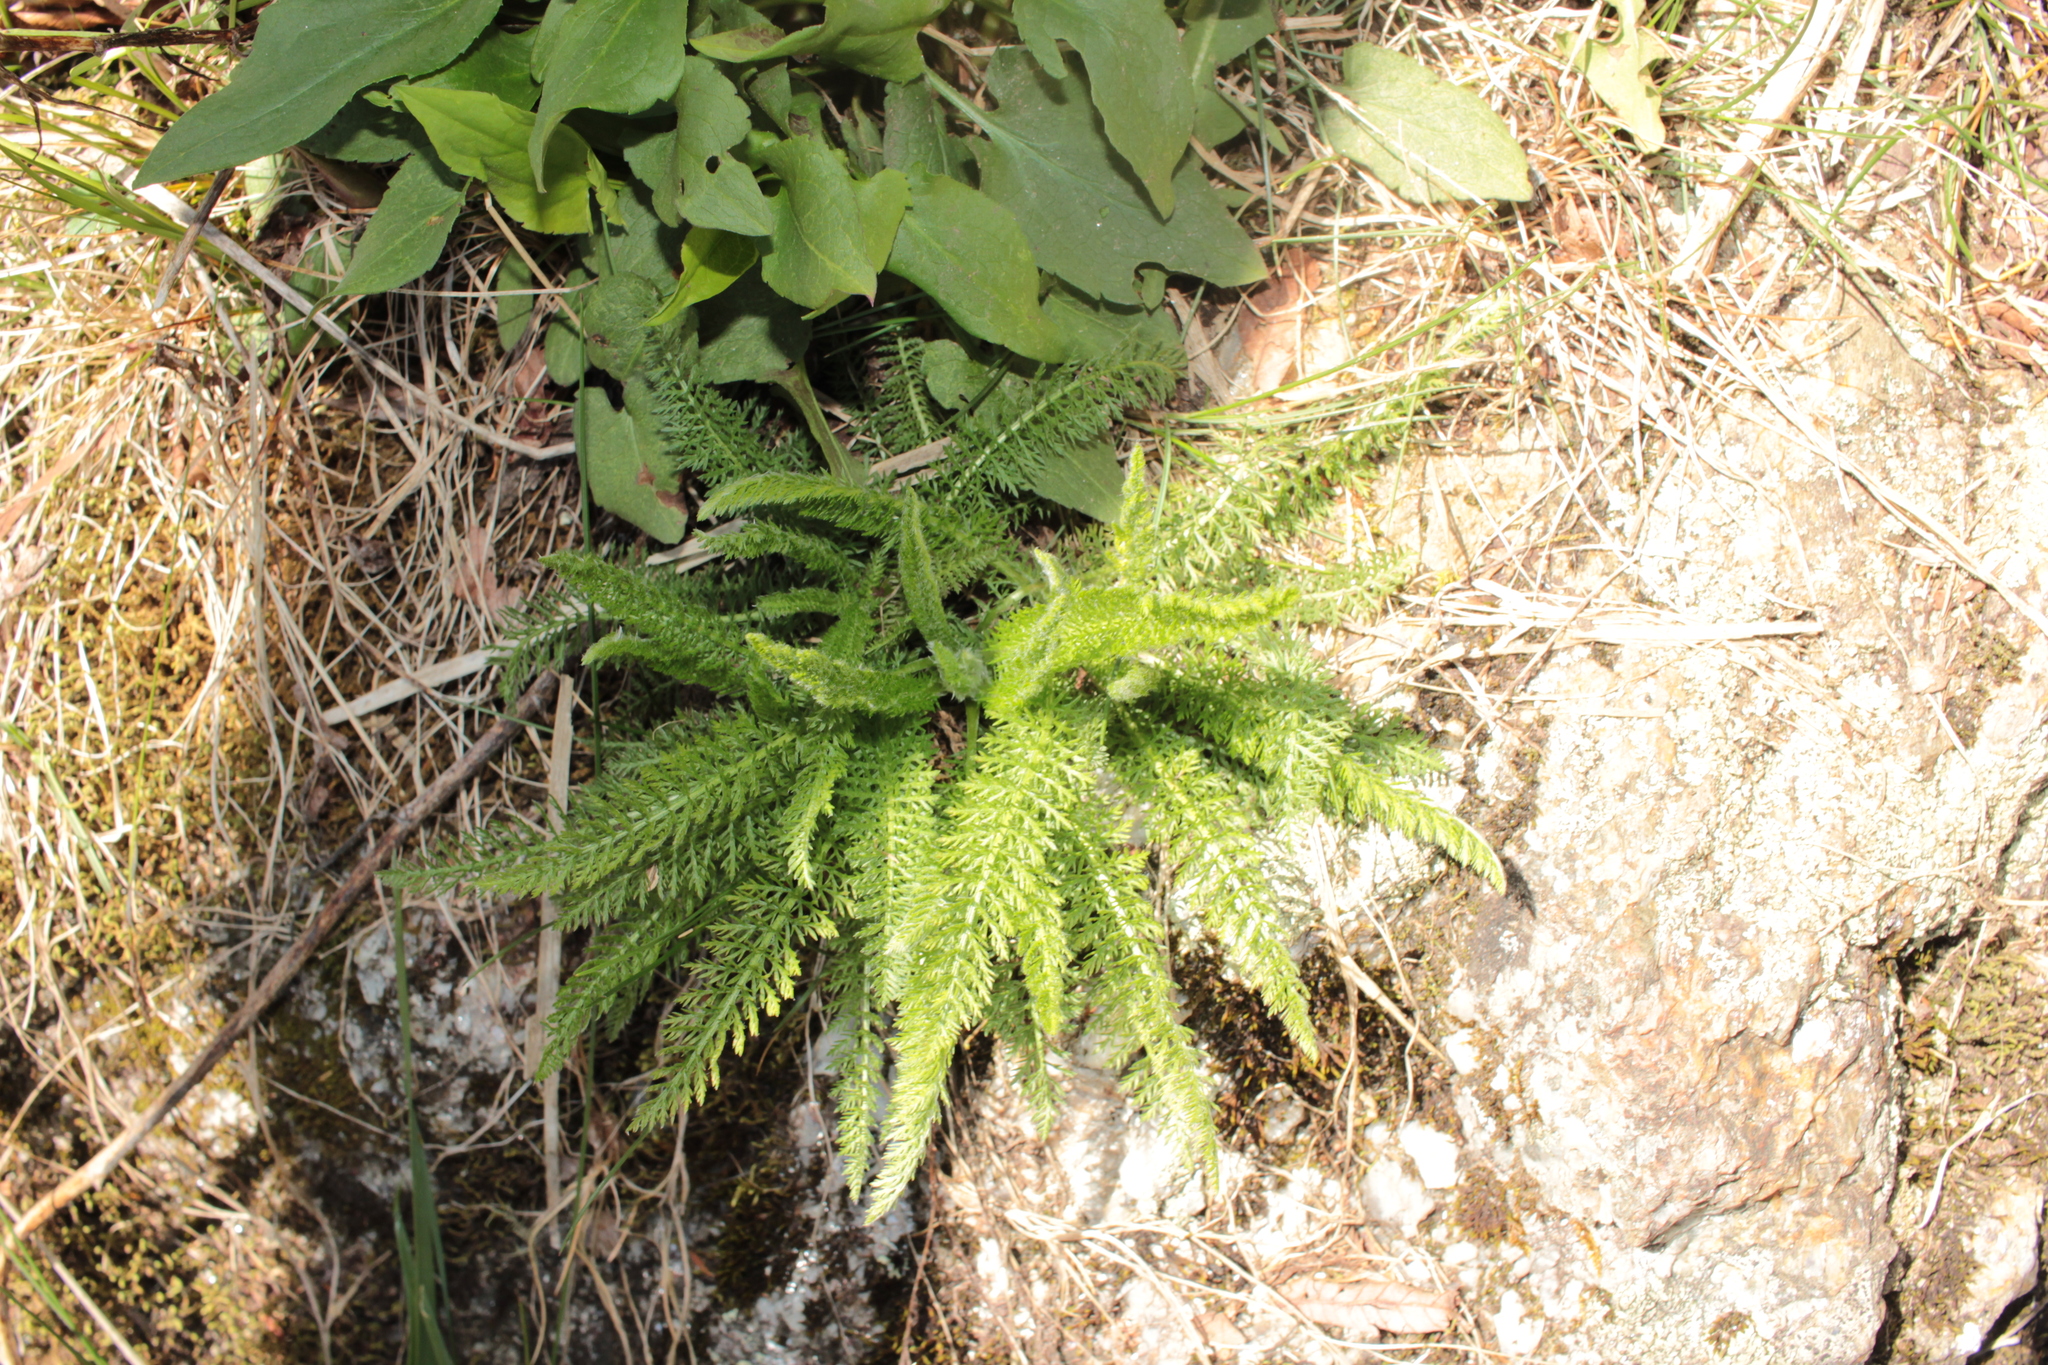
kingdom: Plantae
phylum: Tracheophyta
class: Magnoliopsida
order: Asterales
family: Asteraceae
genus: Achillea
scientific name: Achillea millefolium
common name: Yarrow
